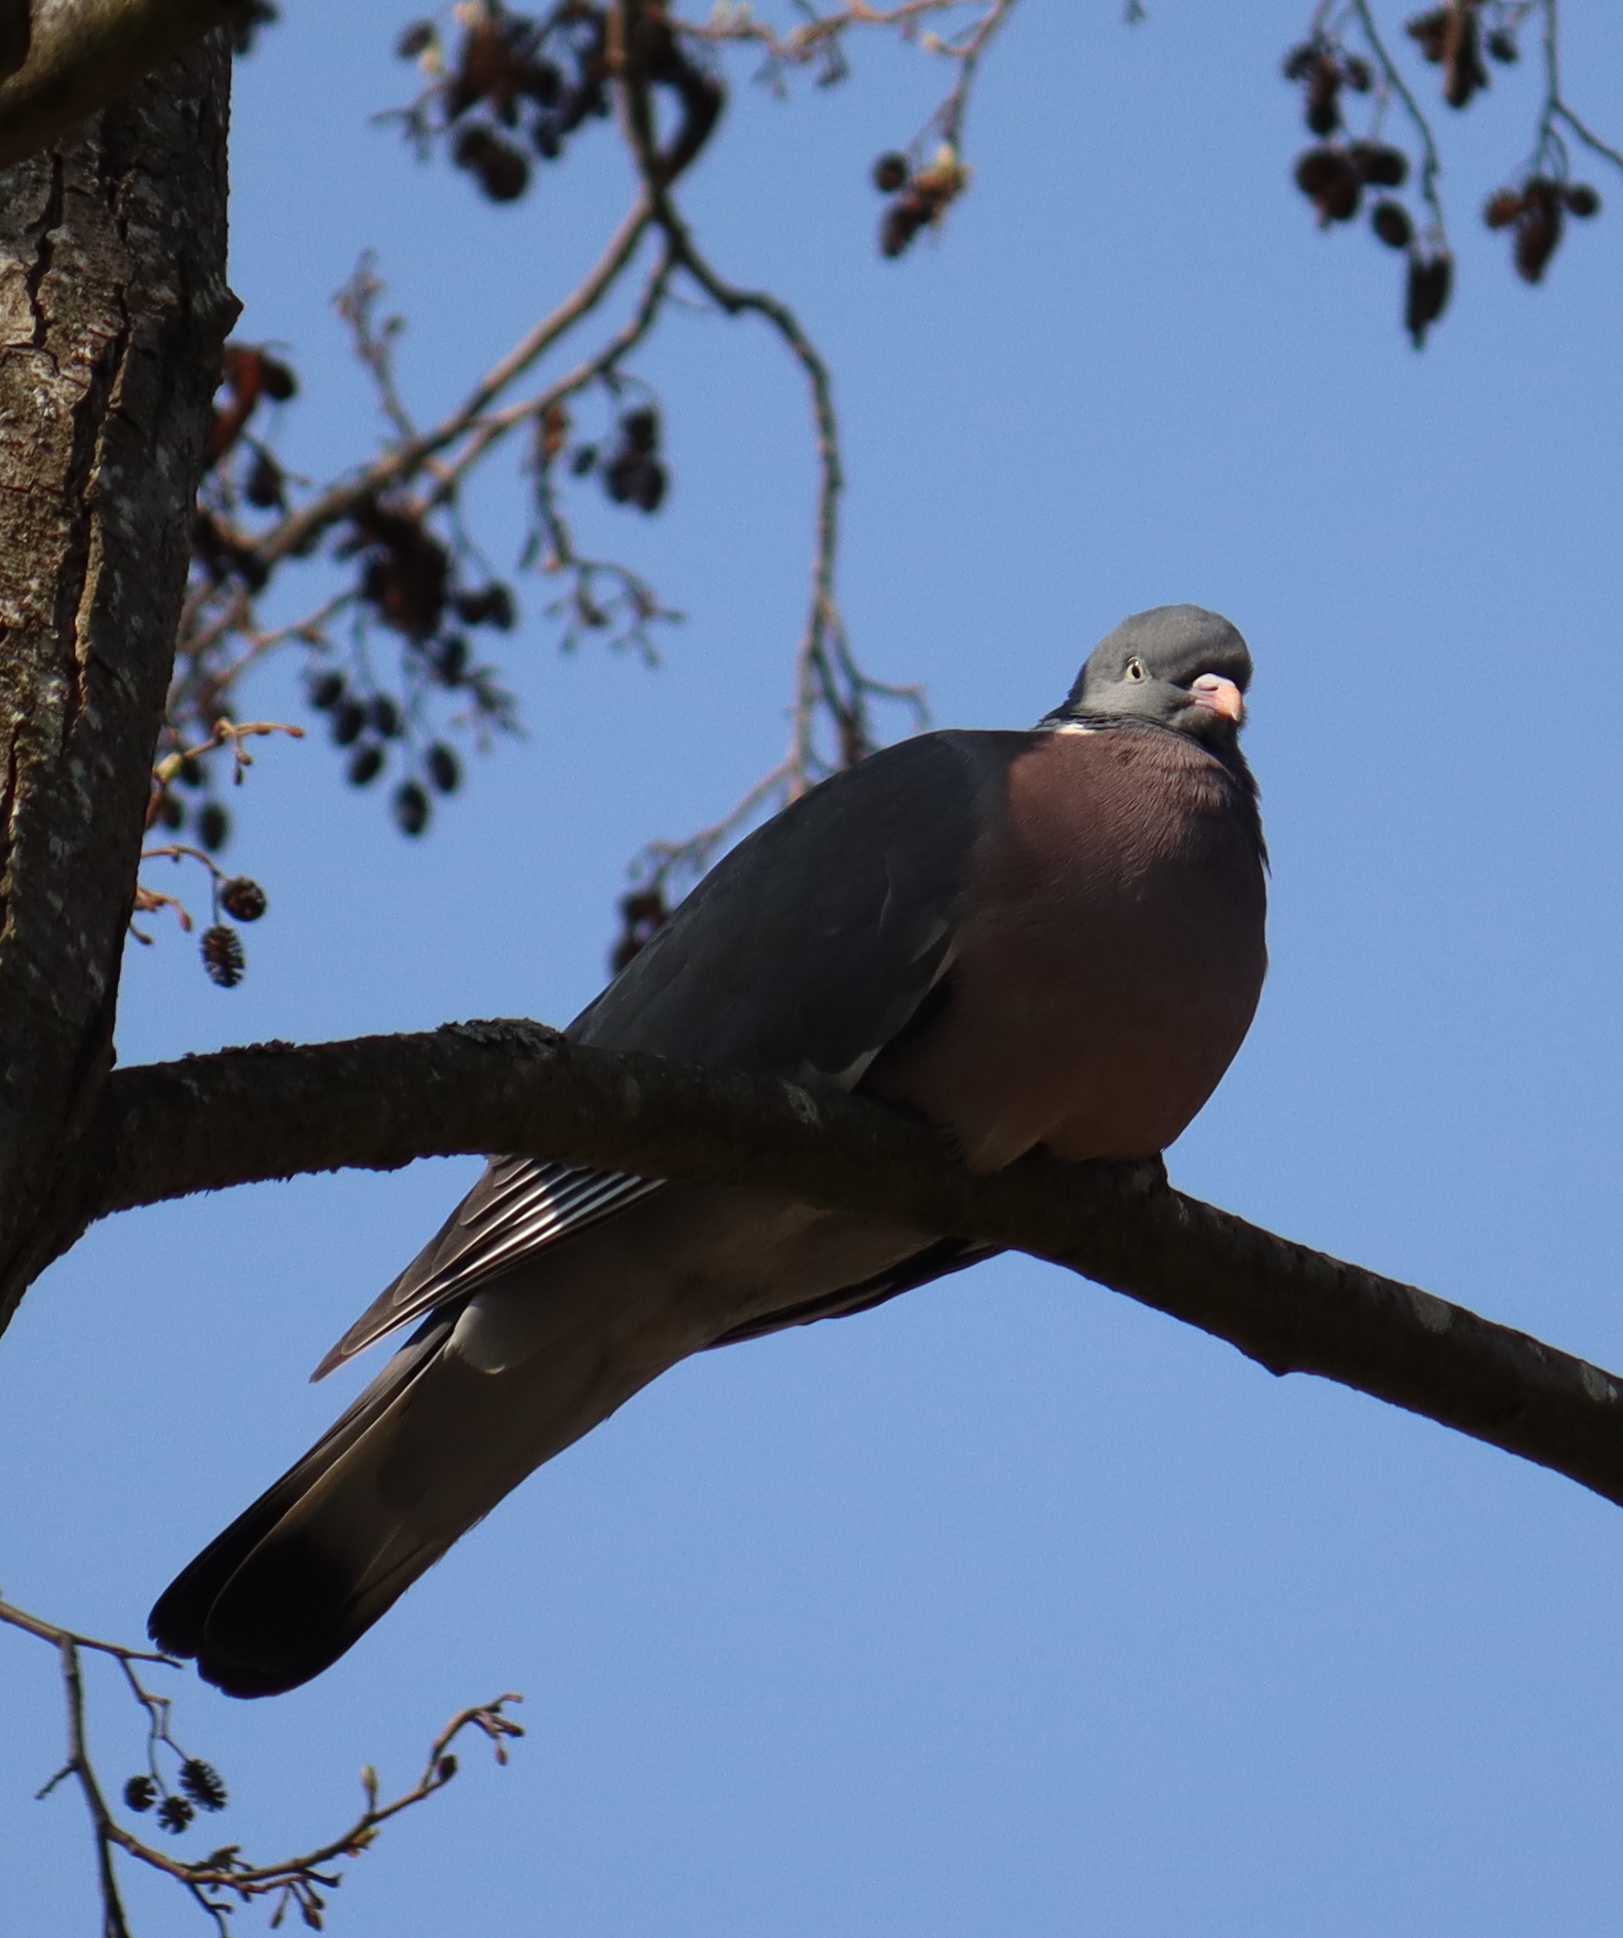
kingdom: Animalia
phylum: Chordata
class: Aves
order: Columbiformes
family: Columbidae
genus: Columba
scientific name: Columba palumbus
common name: Common wood pigeon
